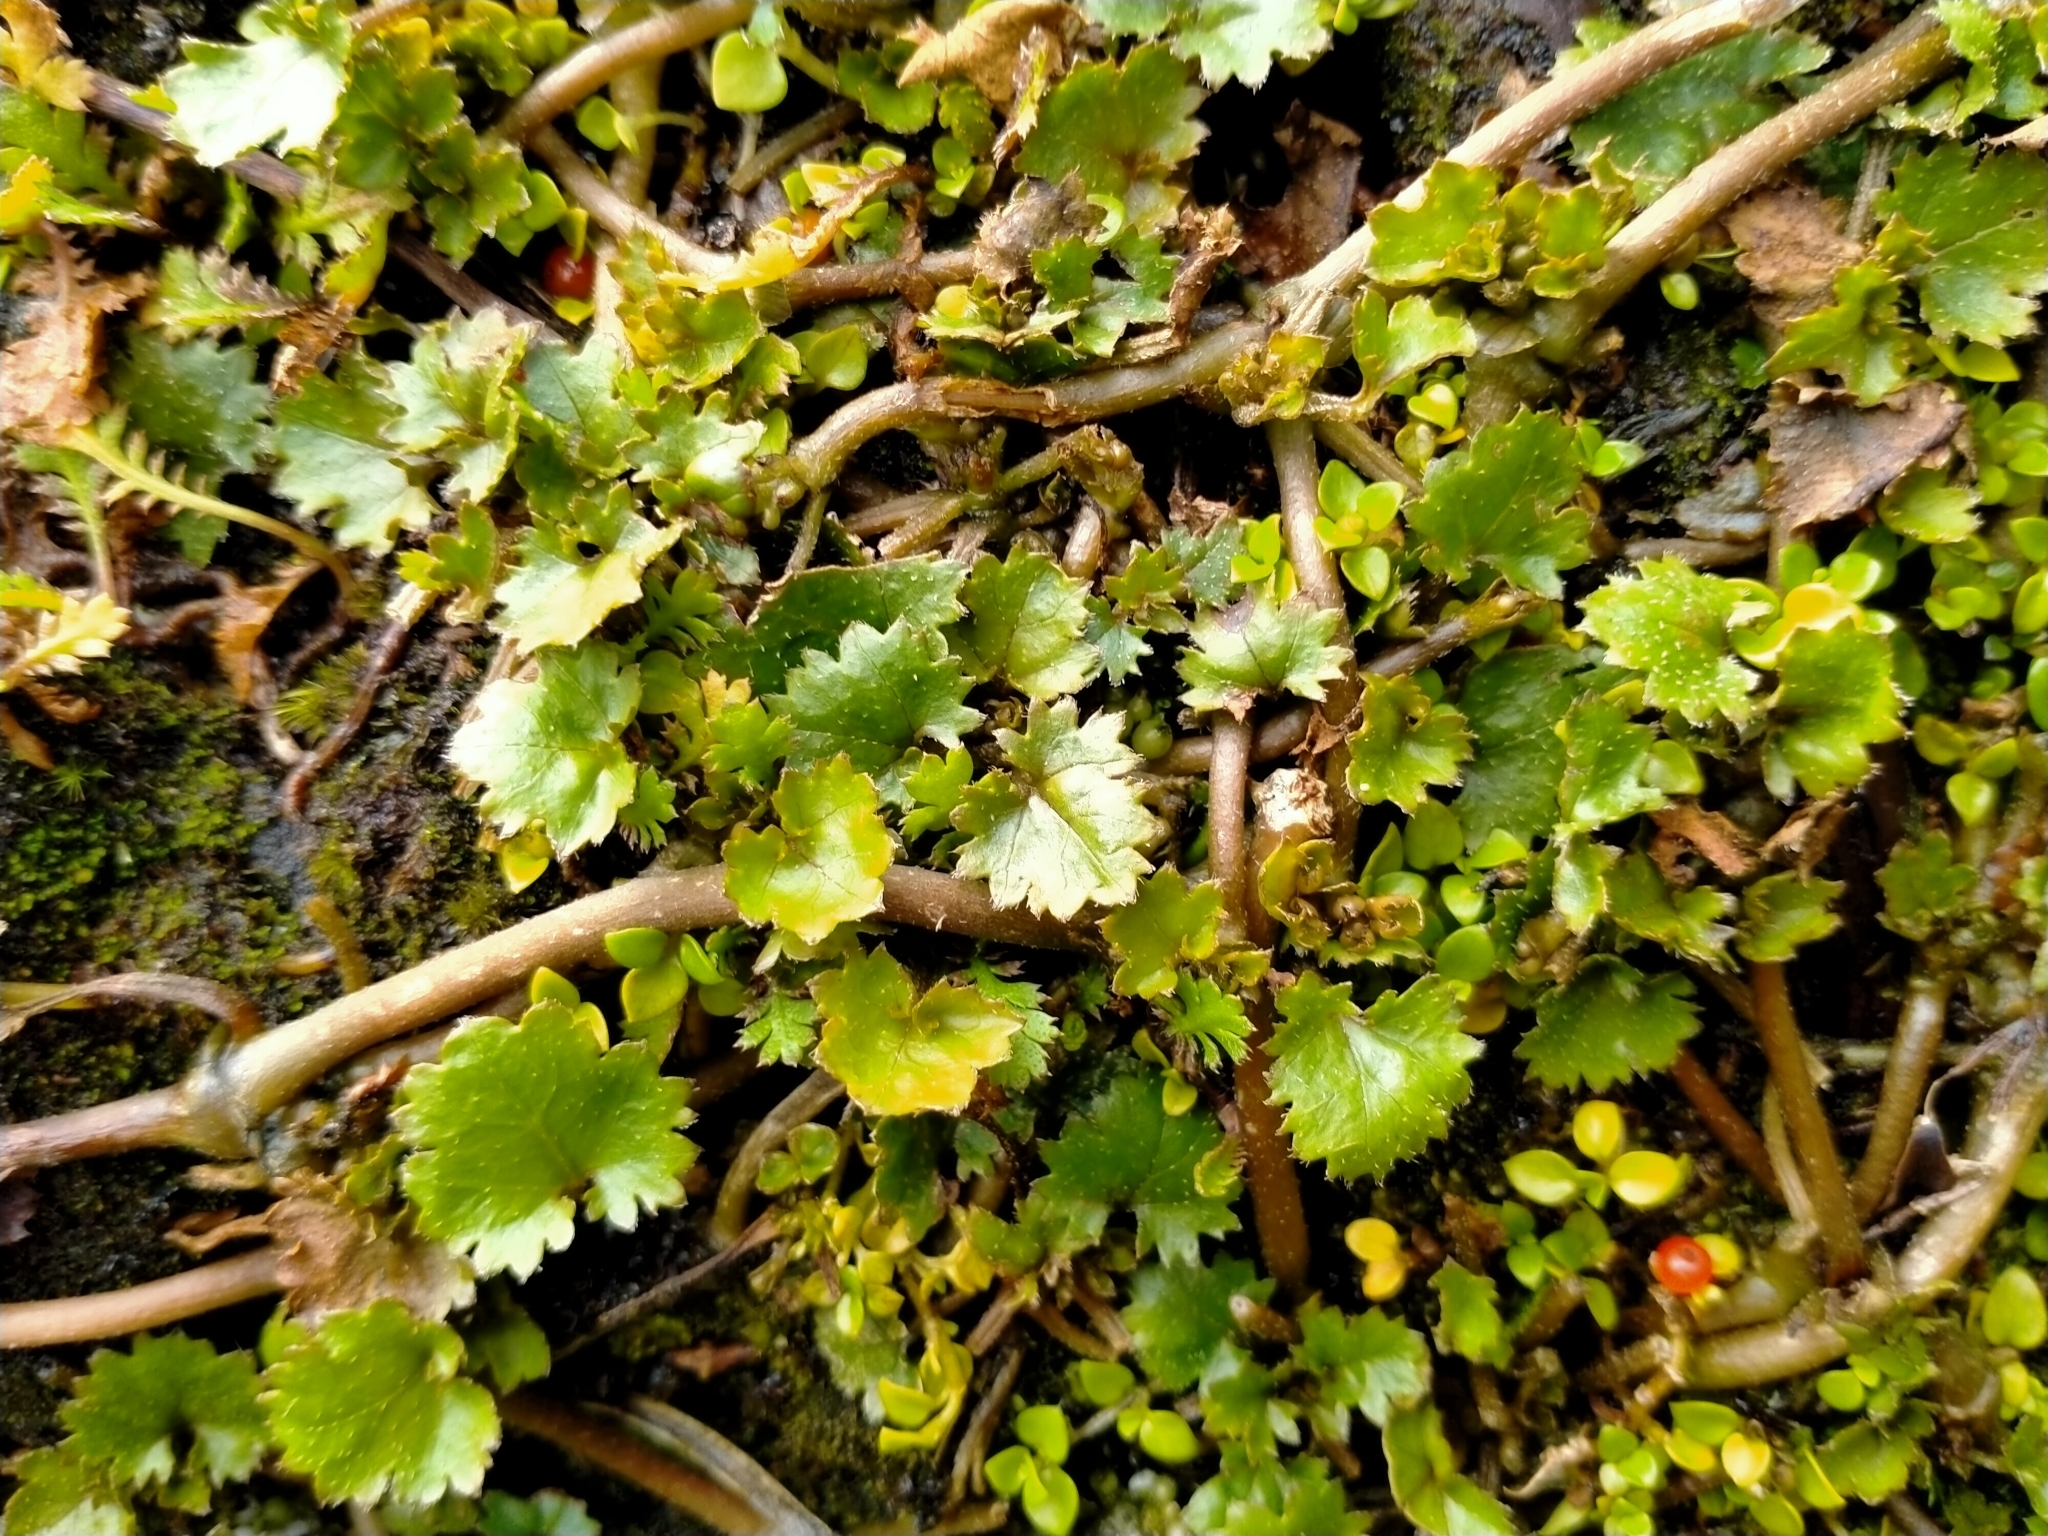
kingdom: Plantae
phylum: Tracheophyta
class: Magnoliopsida
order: Gunnerales
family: Gunneraceae
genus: Gunnera
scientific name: Gunnera monoica
